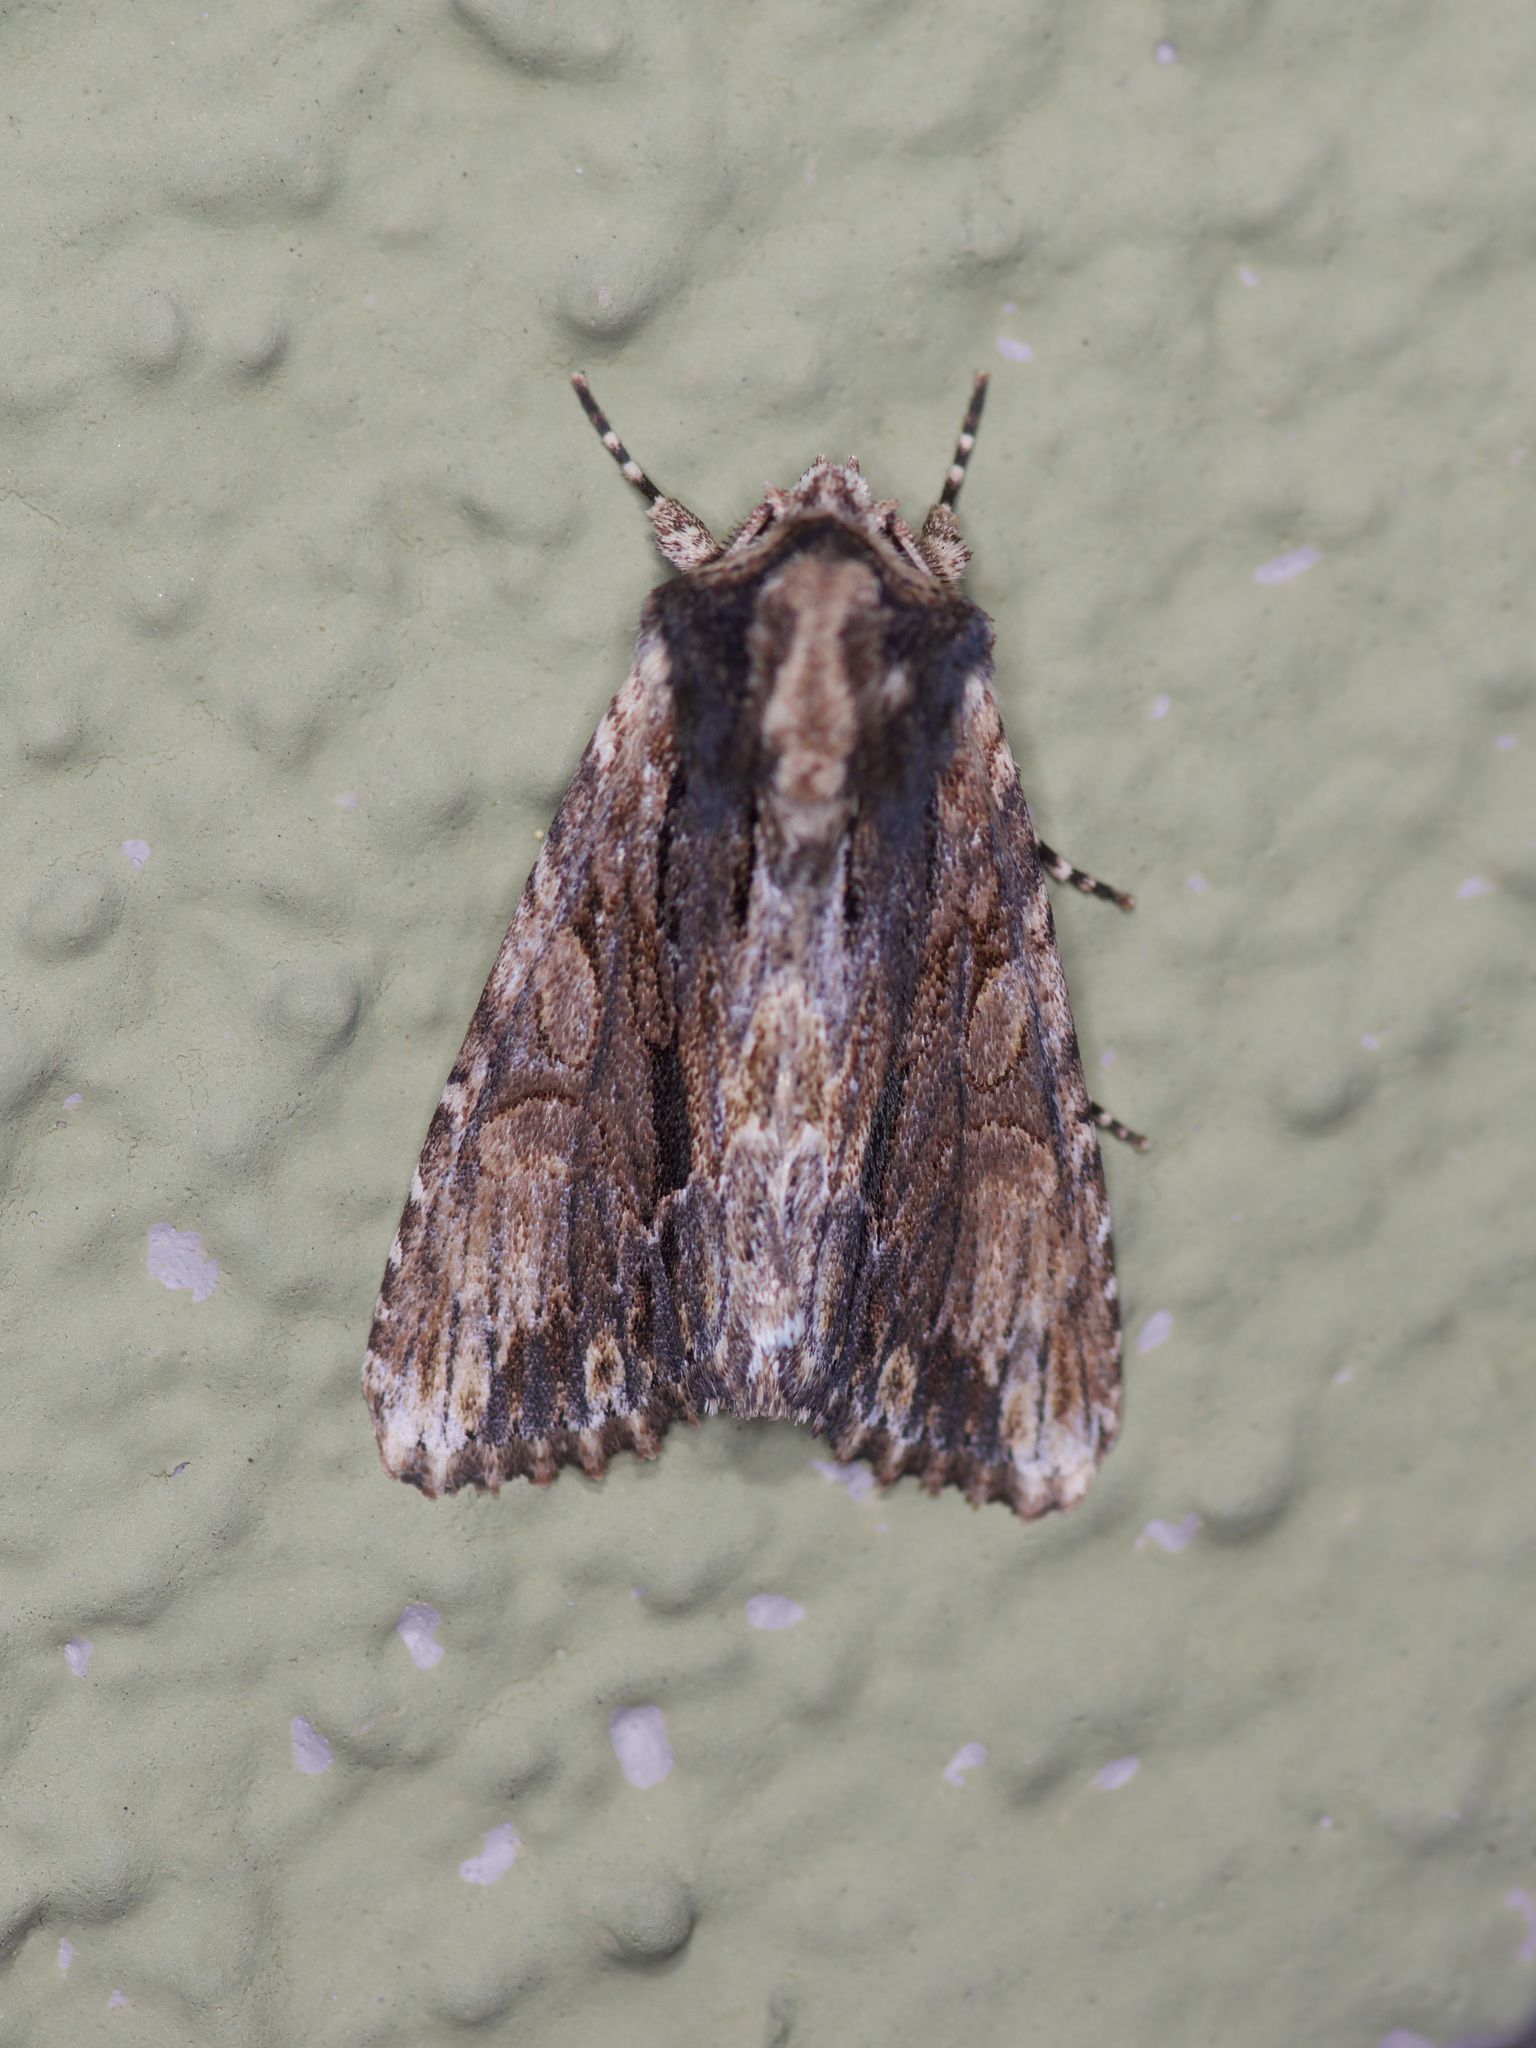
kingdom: Animalia
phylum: Arthropoda
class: Insecta
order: Lepidoptera
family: Noctuidae
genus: Achatia
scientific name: Achatia mucens
